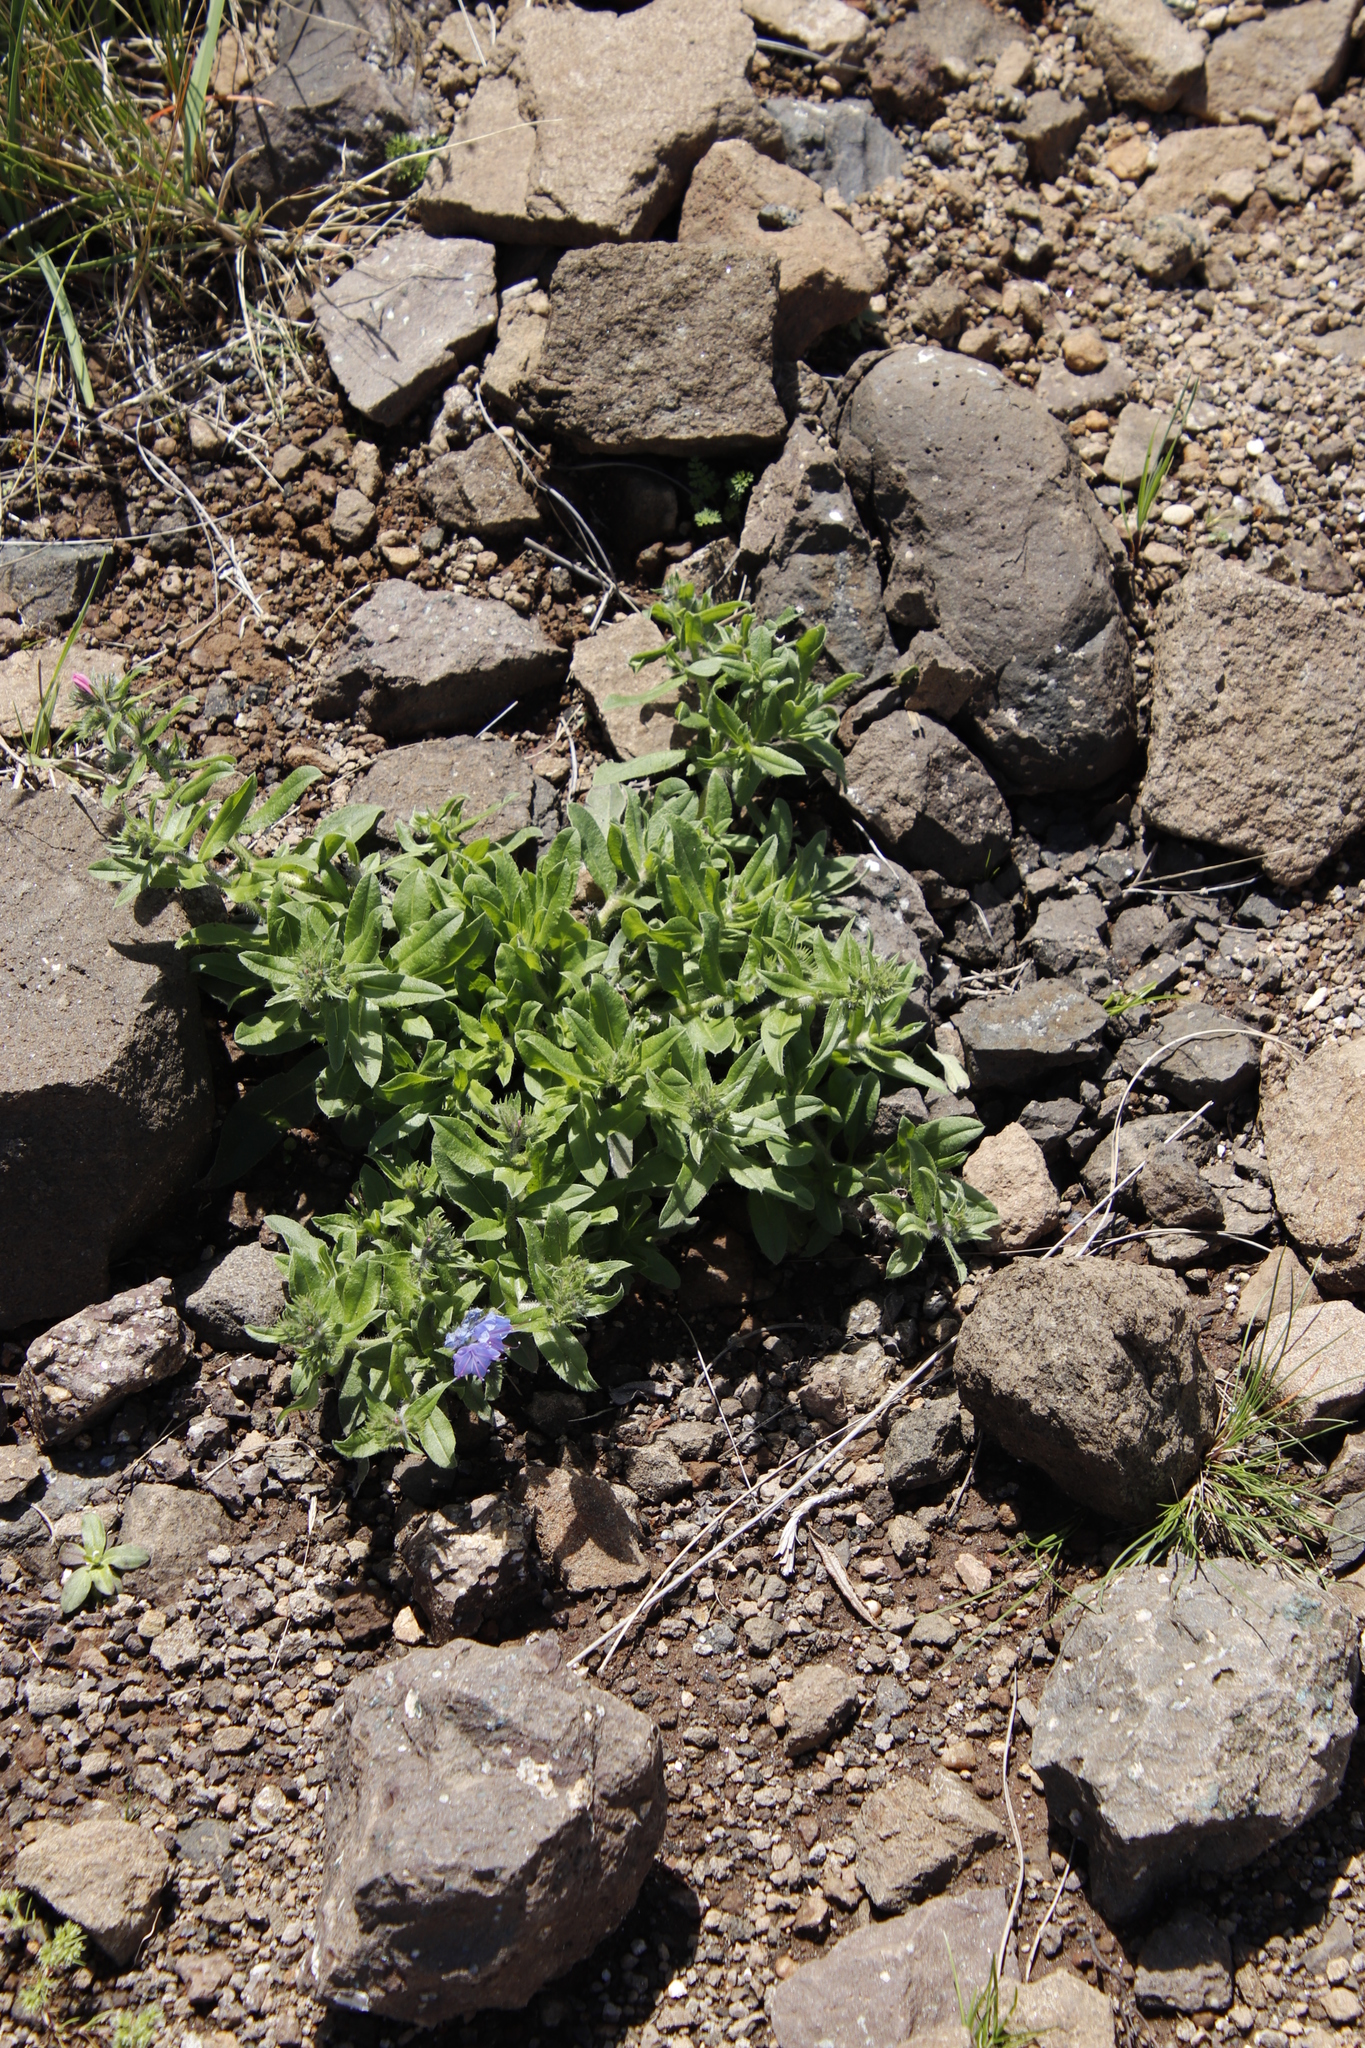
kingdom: Plantae
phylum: Tracheophyta
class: Magnoliopsida
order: Boraginales
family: Boraginaceae
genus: Echium
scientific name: Echium vulgare
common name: Common viper's bugloss
